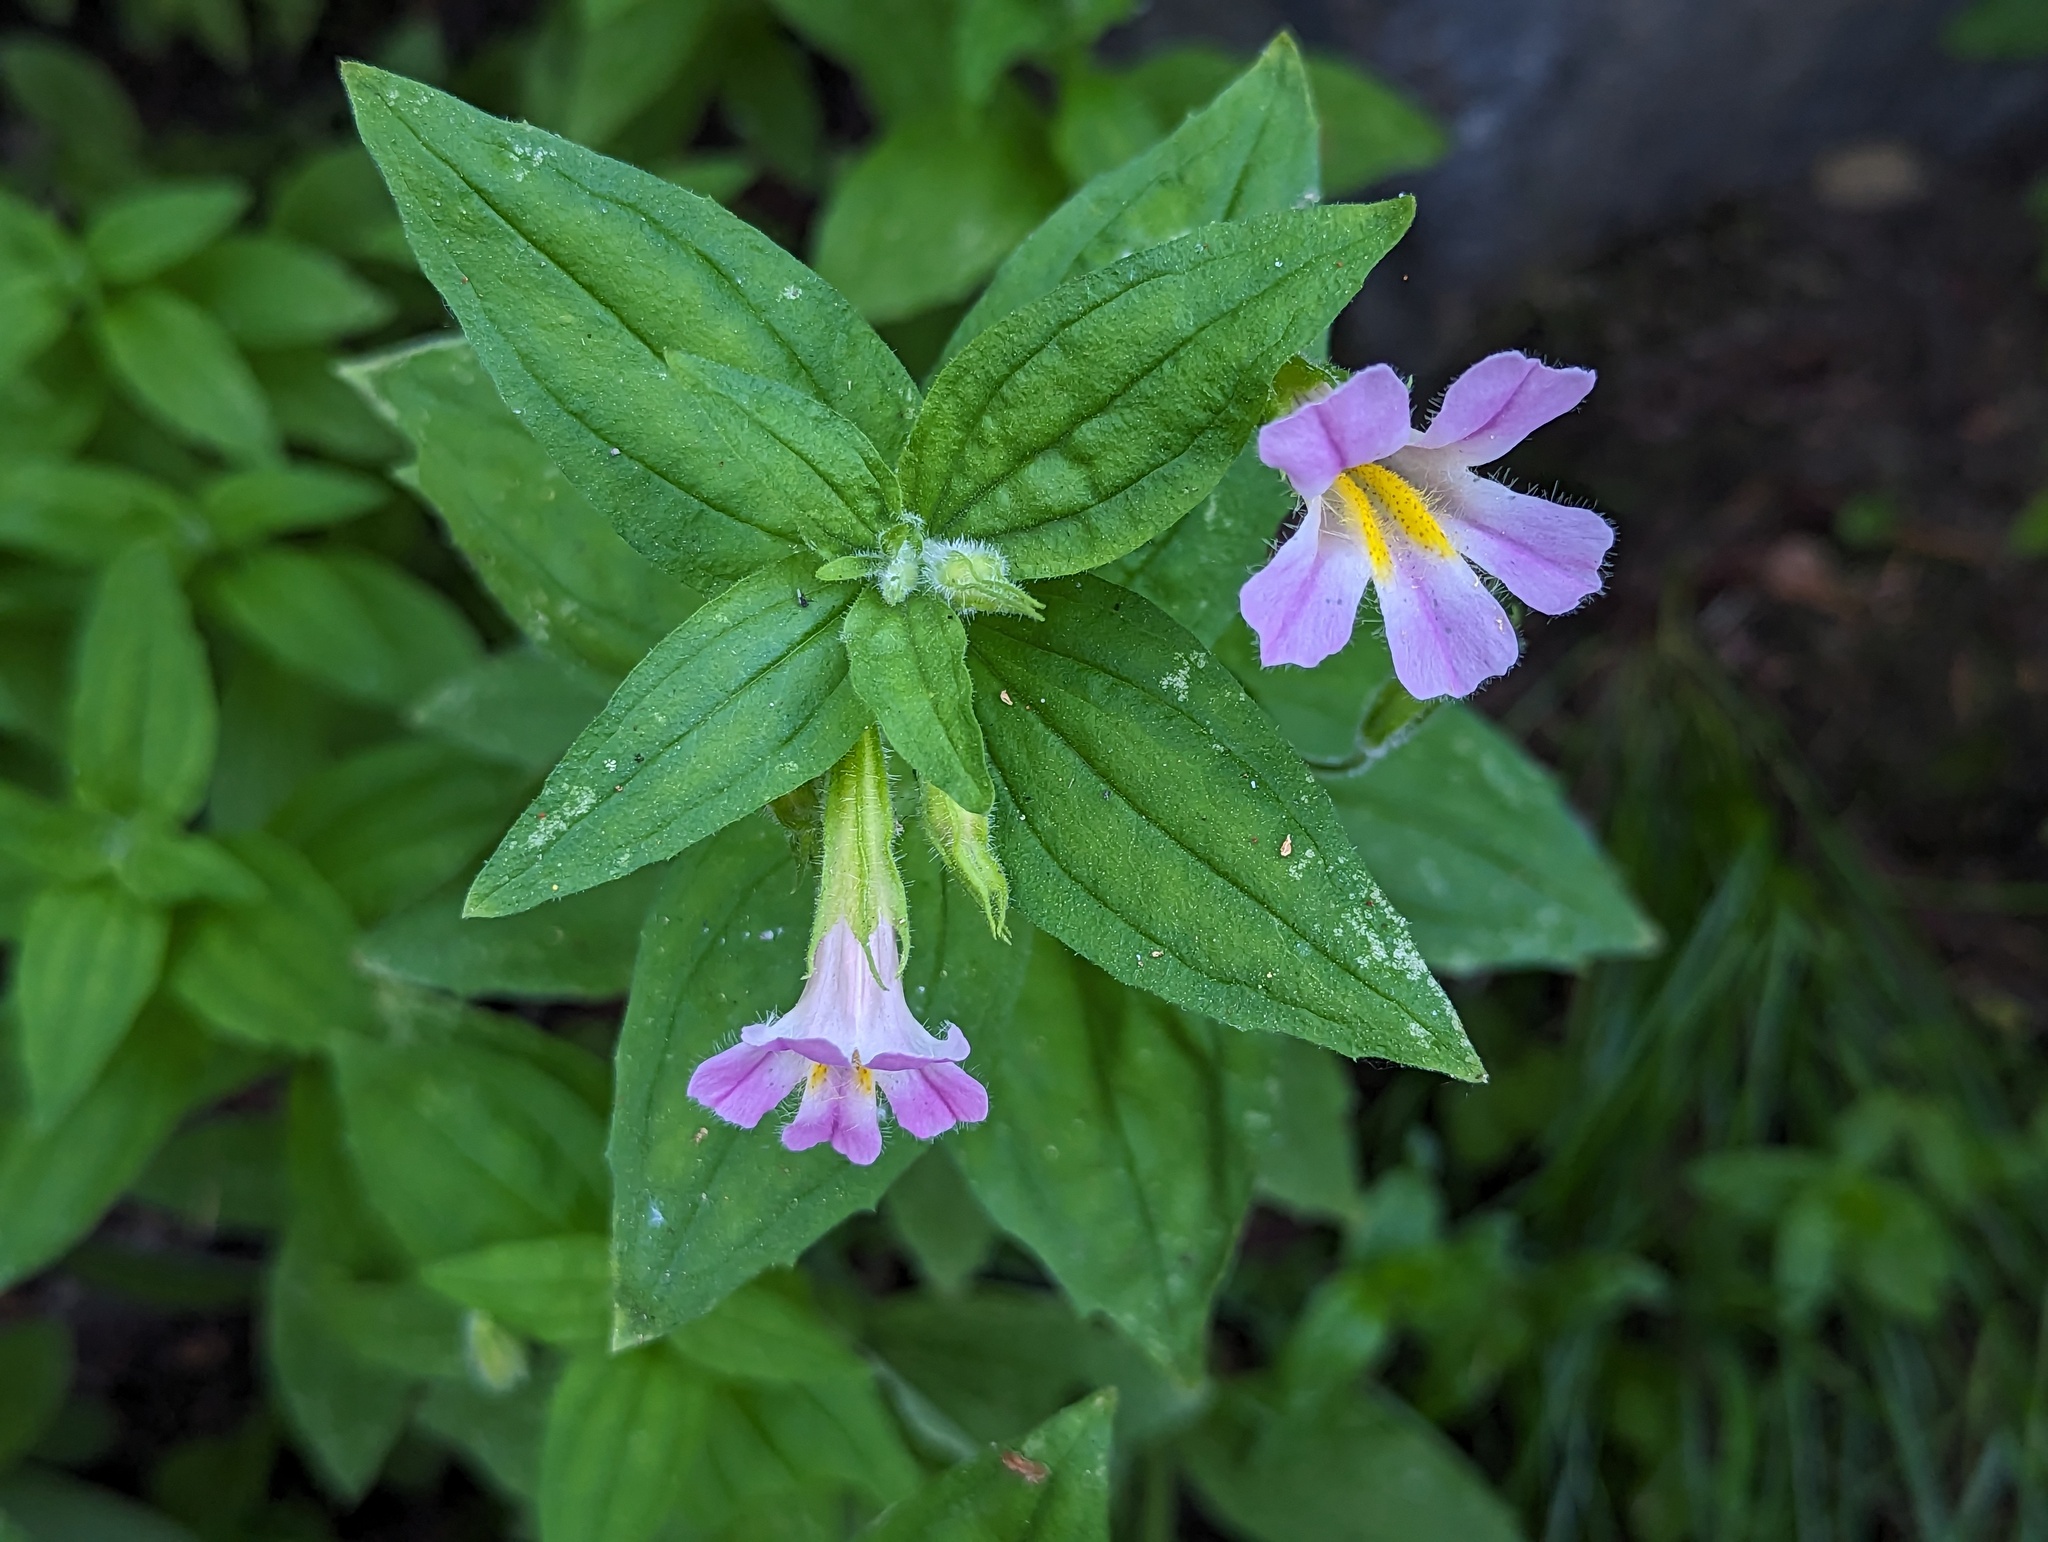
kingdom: Plantae
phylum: Tracheophyta
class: Magnoliopsida
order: Lamiales
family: Phrymaceae
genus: Erythranthe
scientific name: Erythranthe erubescens
